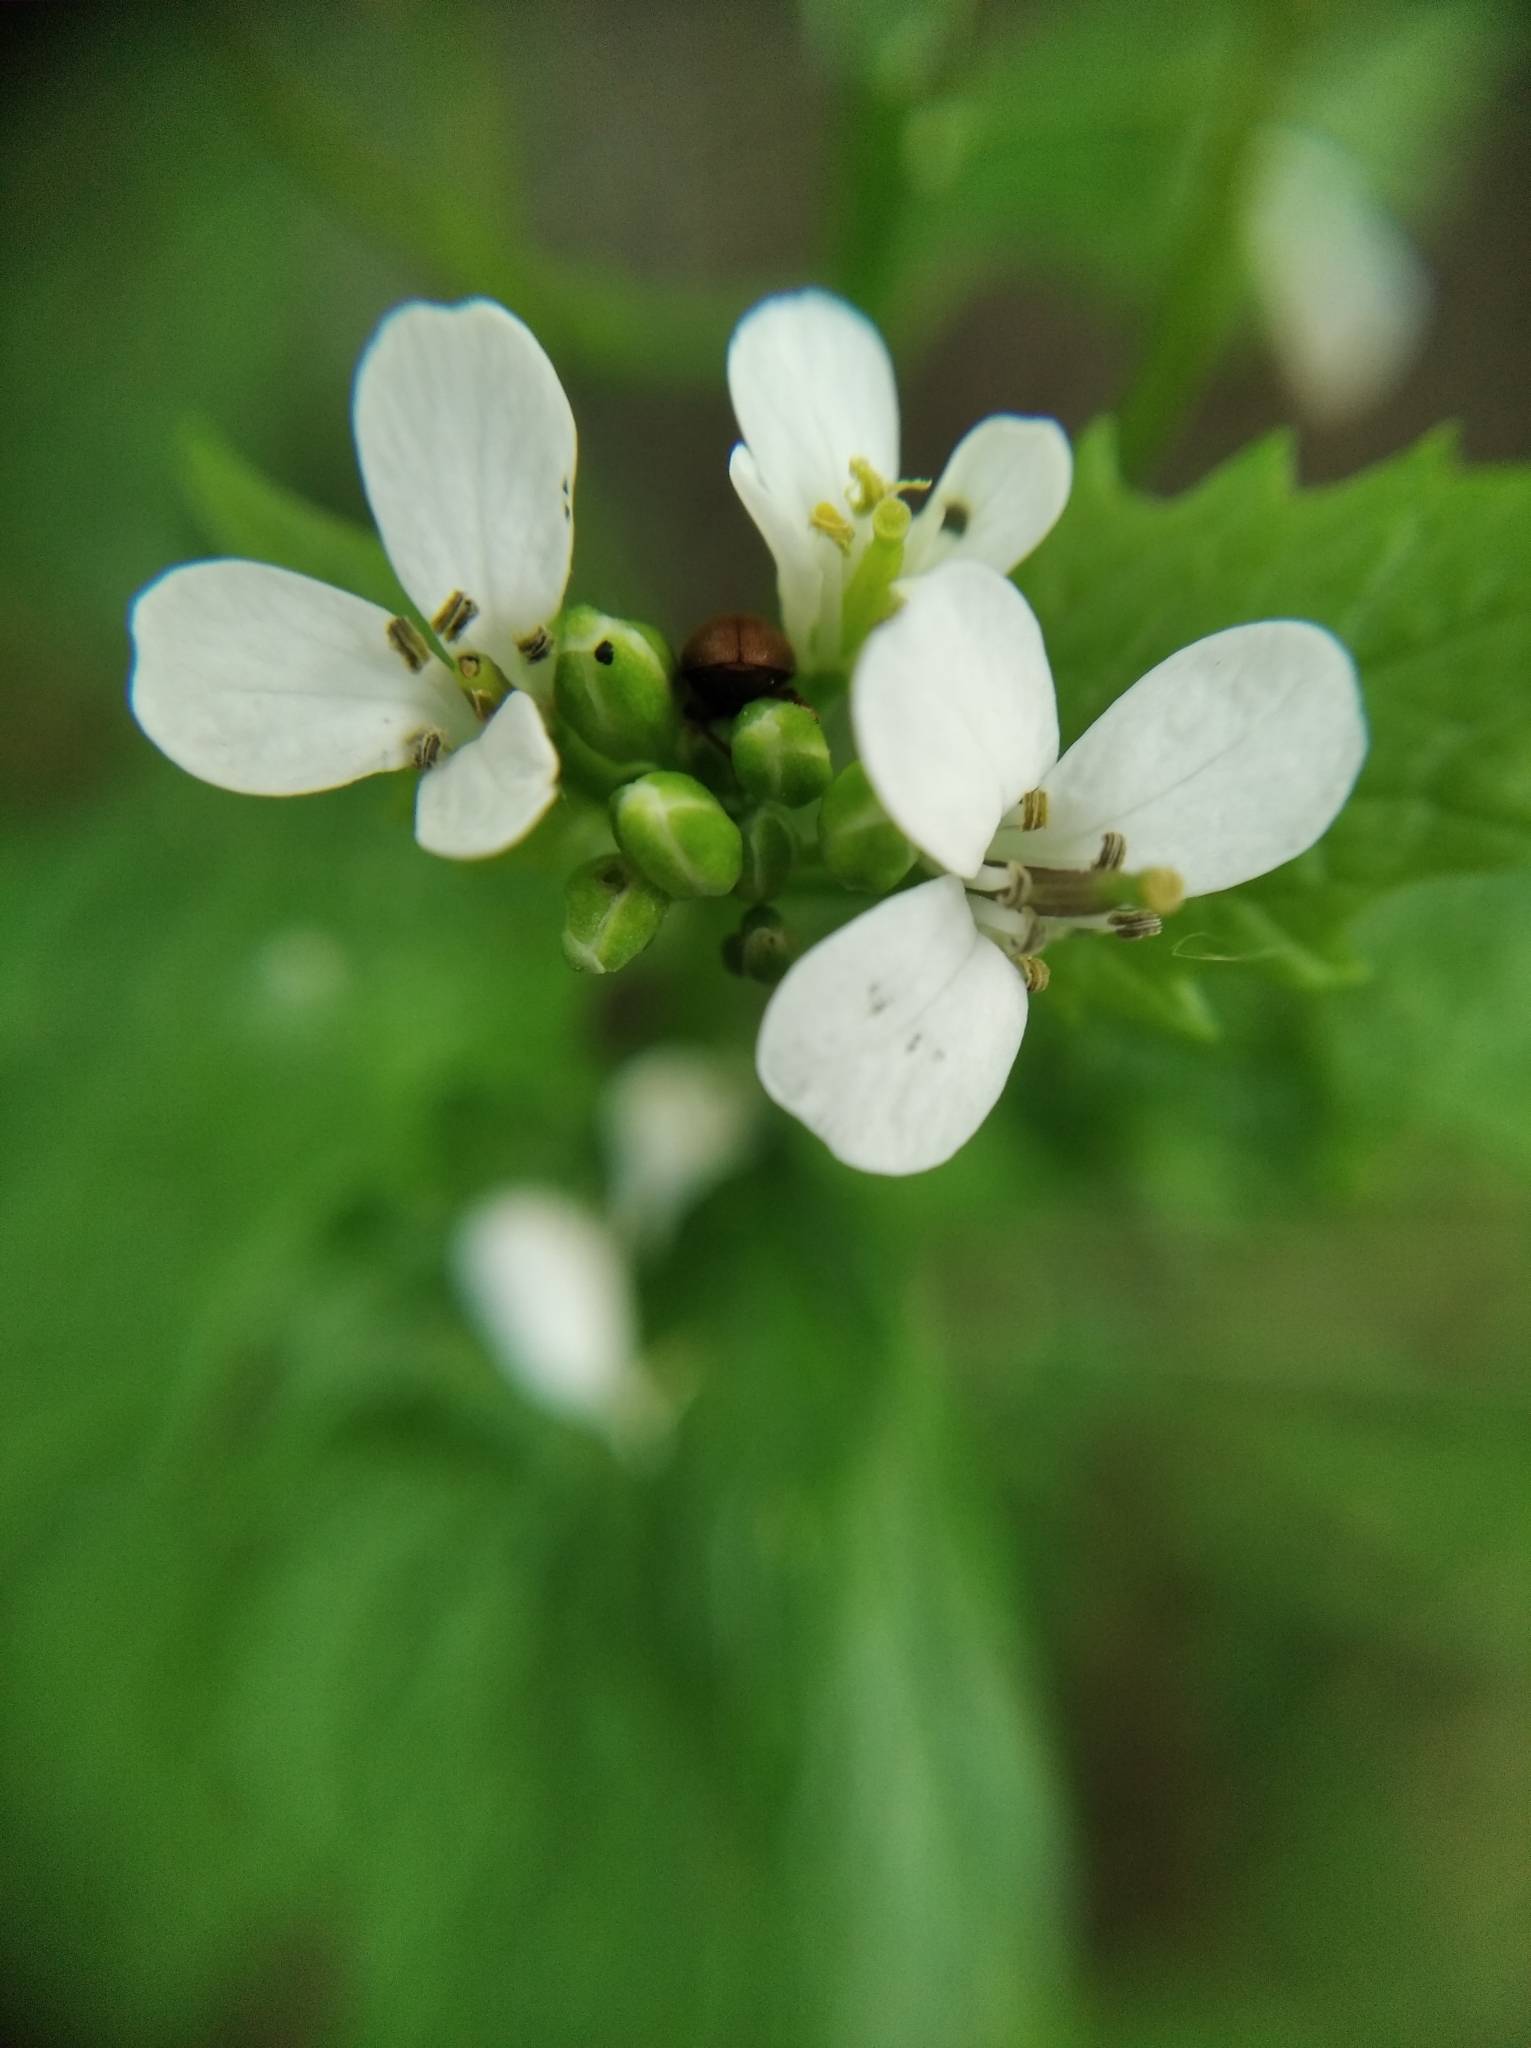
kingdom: Plantae
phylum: Tracheophyta
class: Magnoliopsida
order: Brassicales
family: Brassicaceae
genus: Alliaria
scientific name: Alliaria petiolata
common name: Garlic mustard
